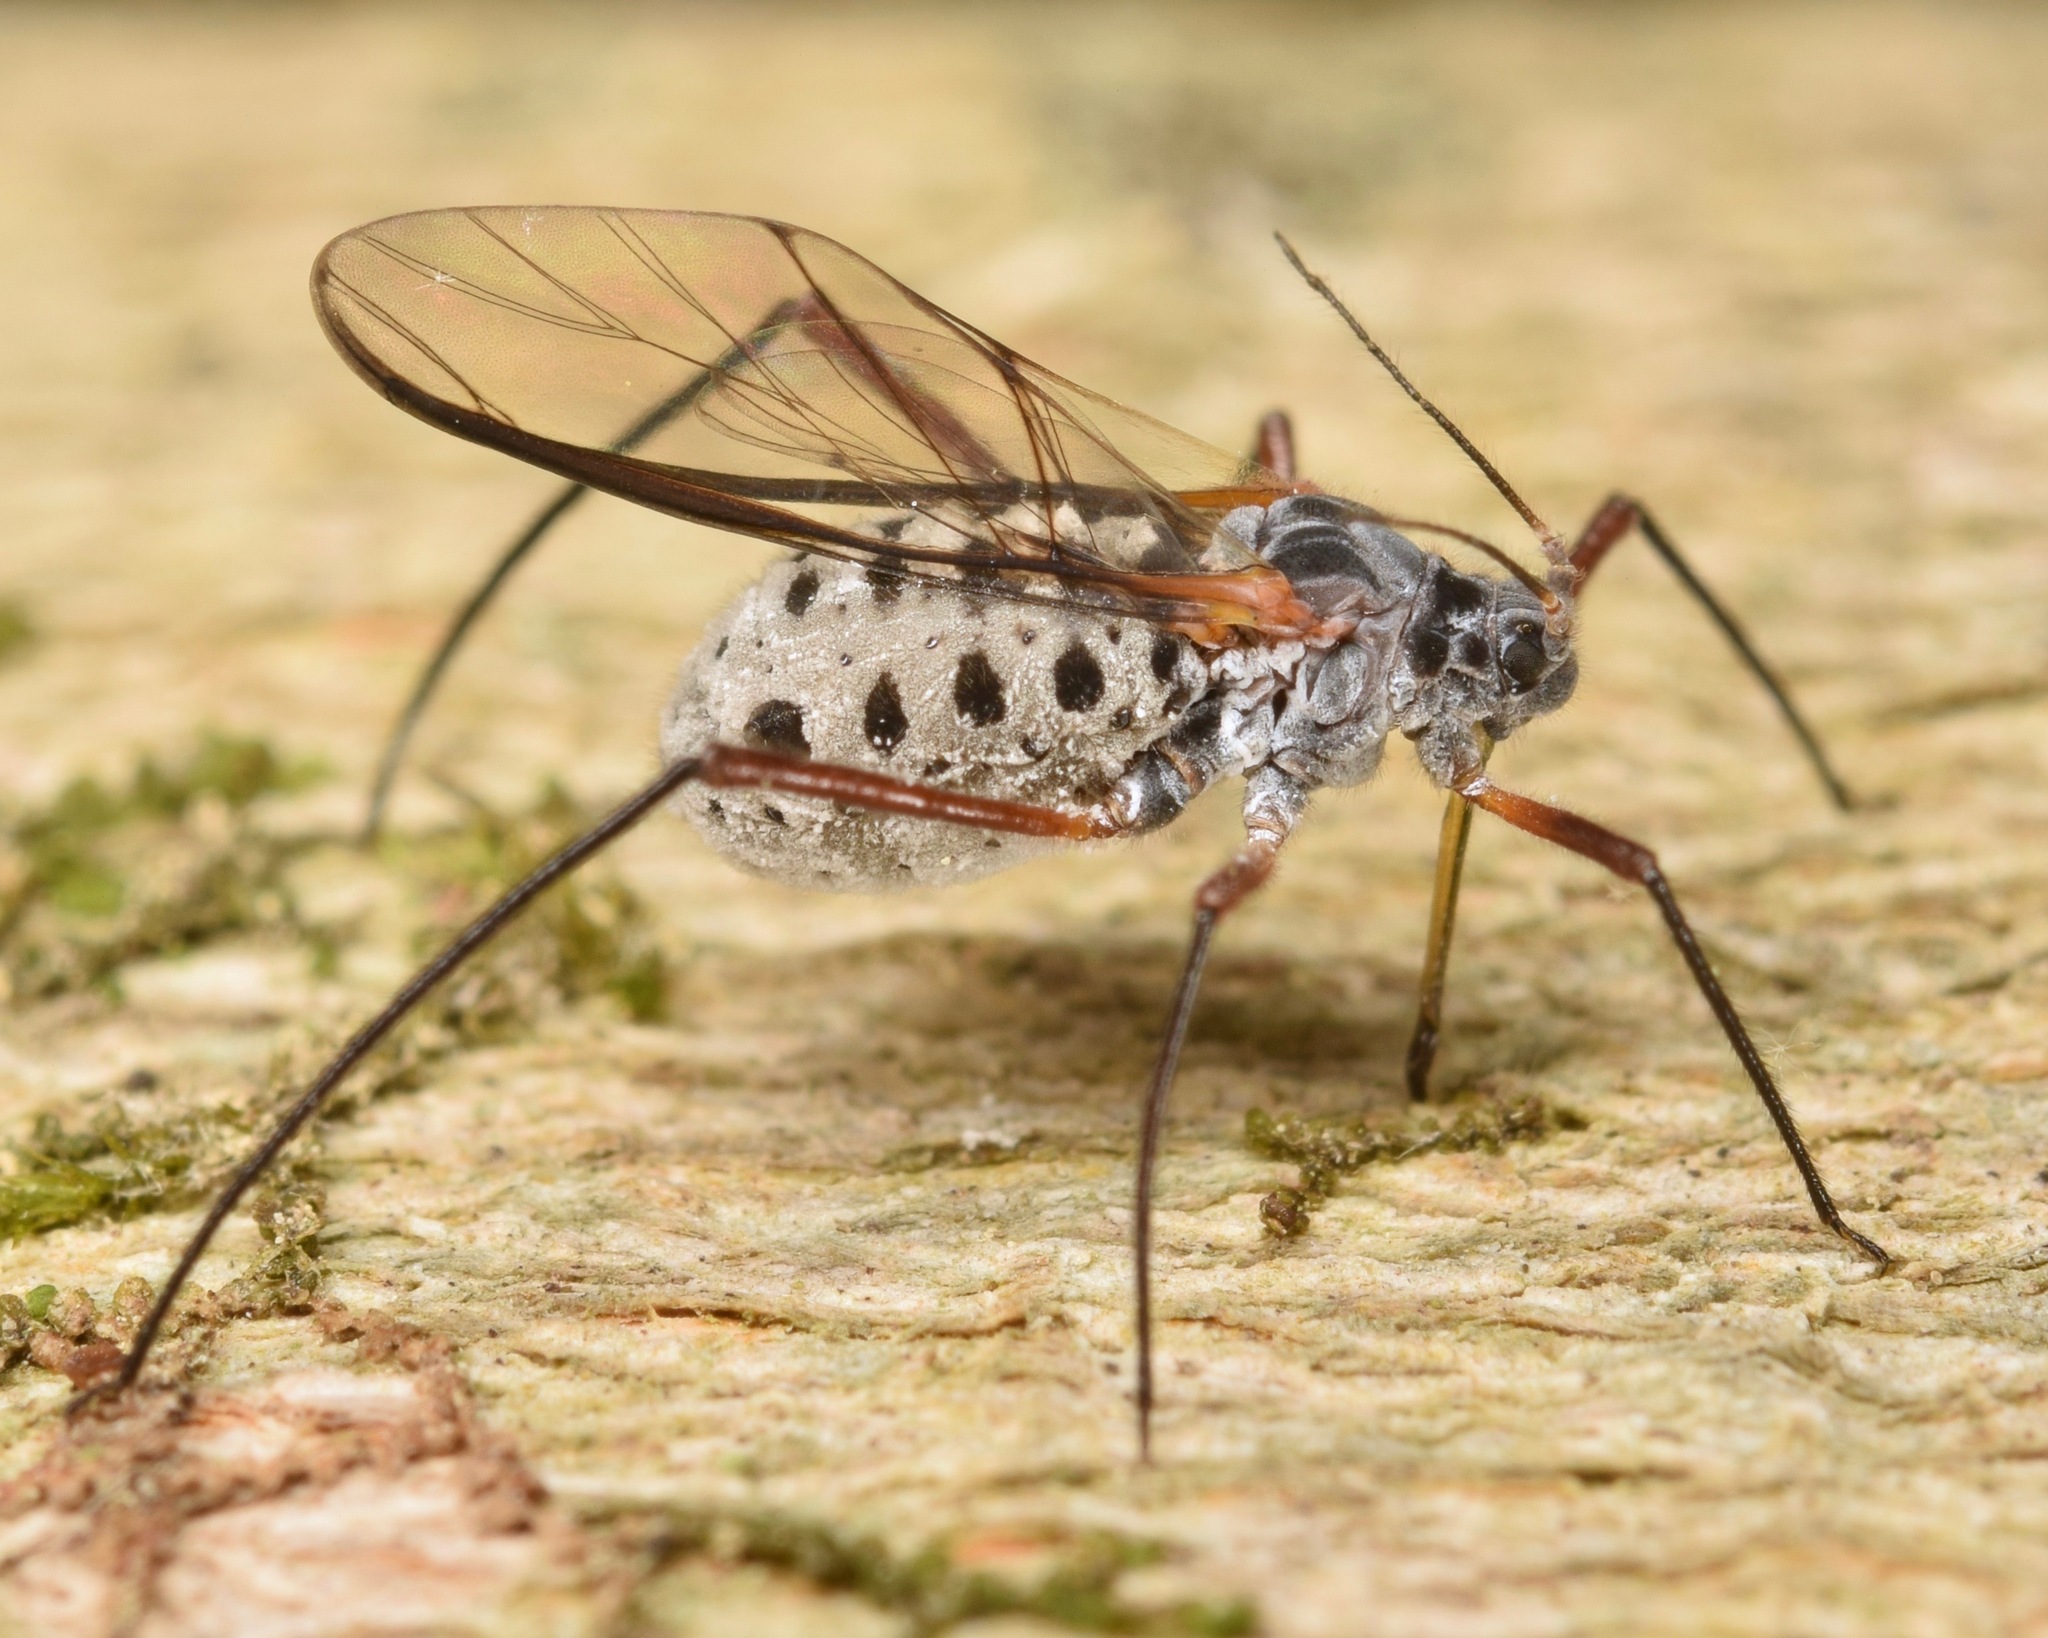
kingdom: Animalia
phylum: Arthropoda
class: Insecta
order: Hemiptera
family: Aphididae
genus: Longistigma
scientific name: Longistigma caryae
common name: Giant bark aphid
